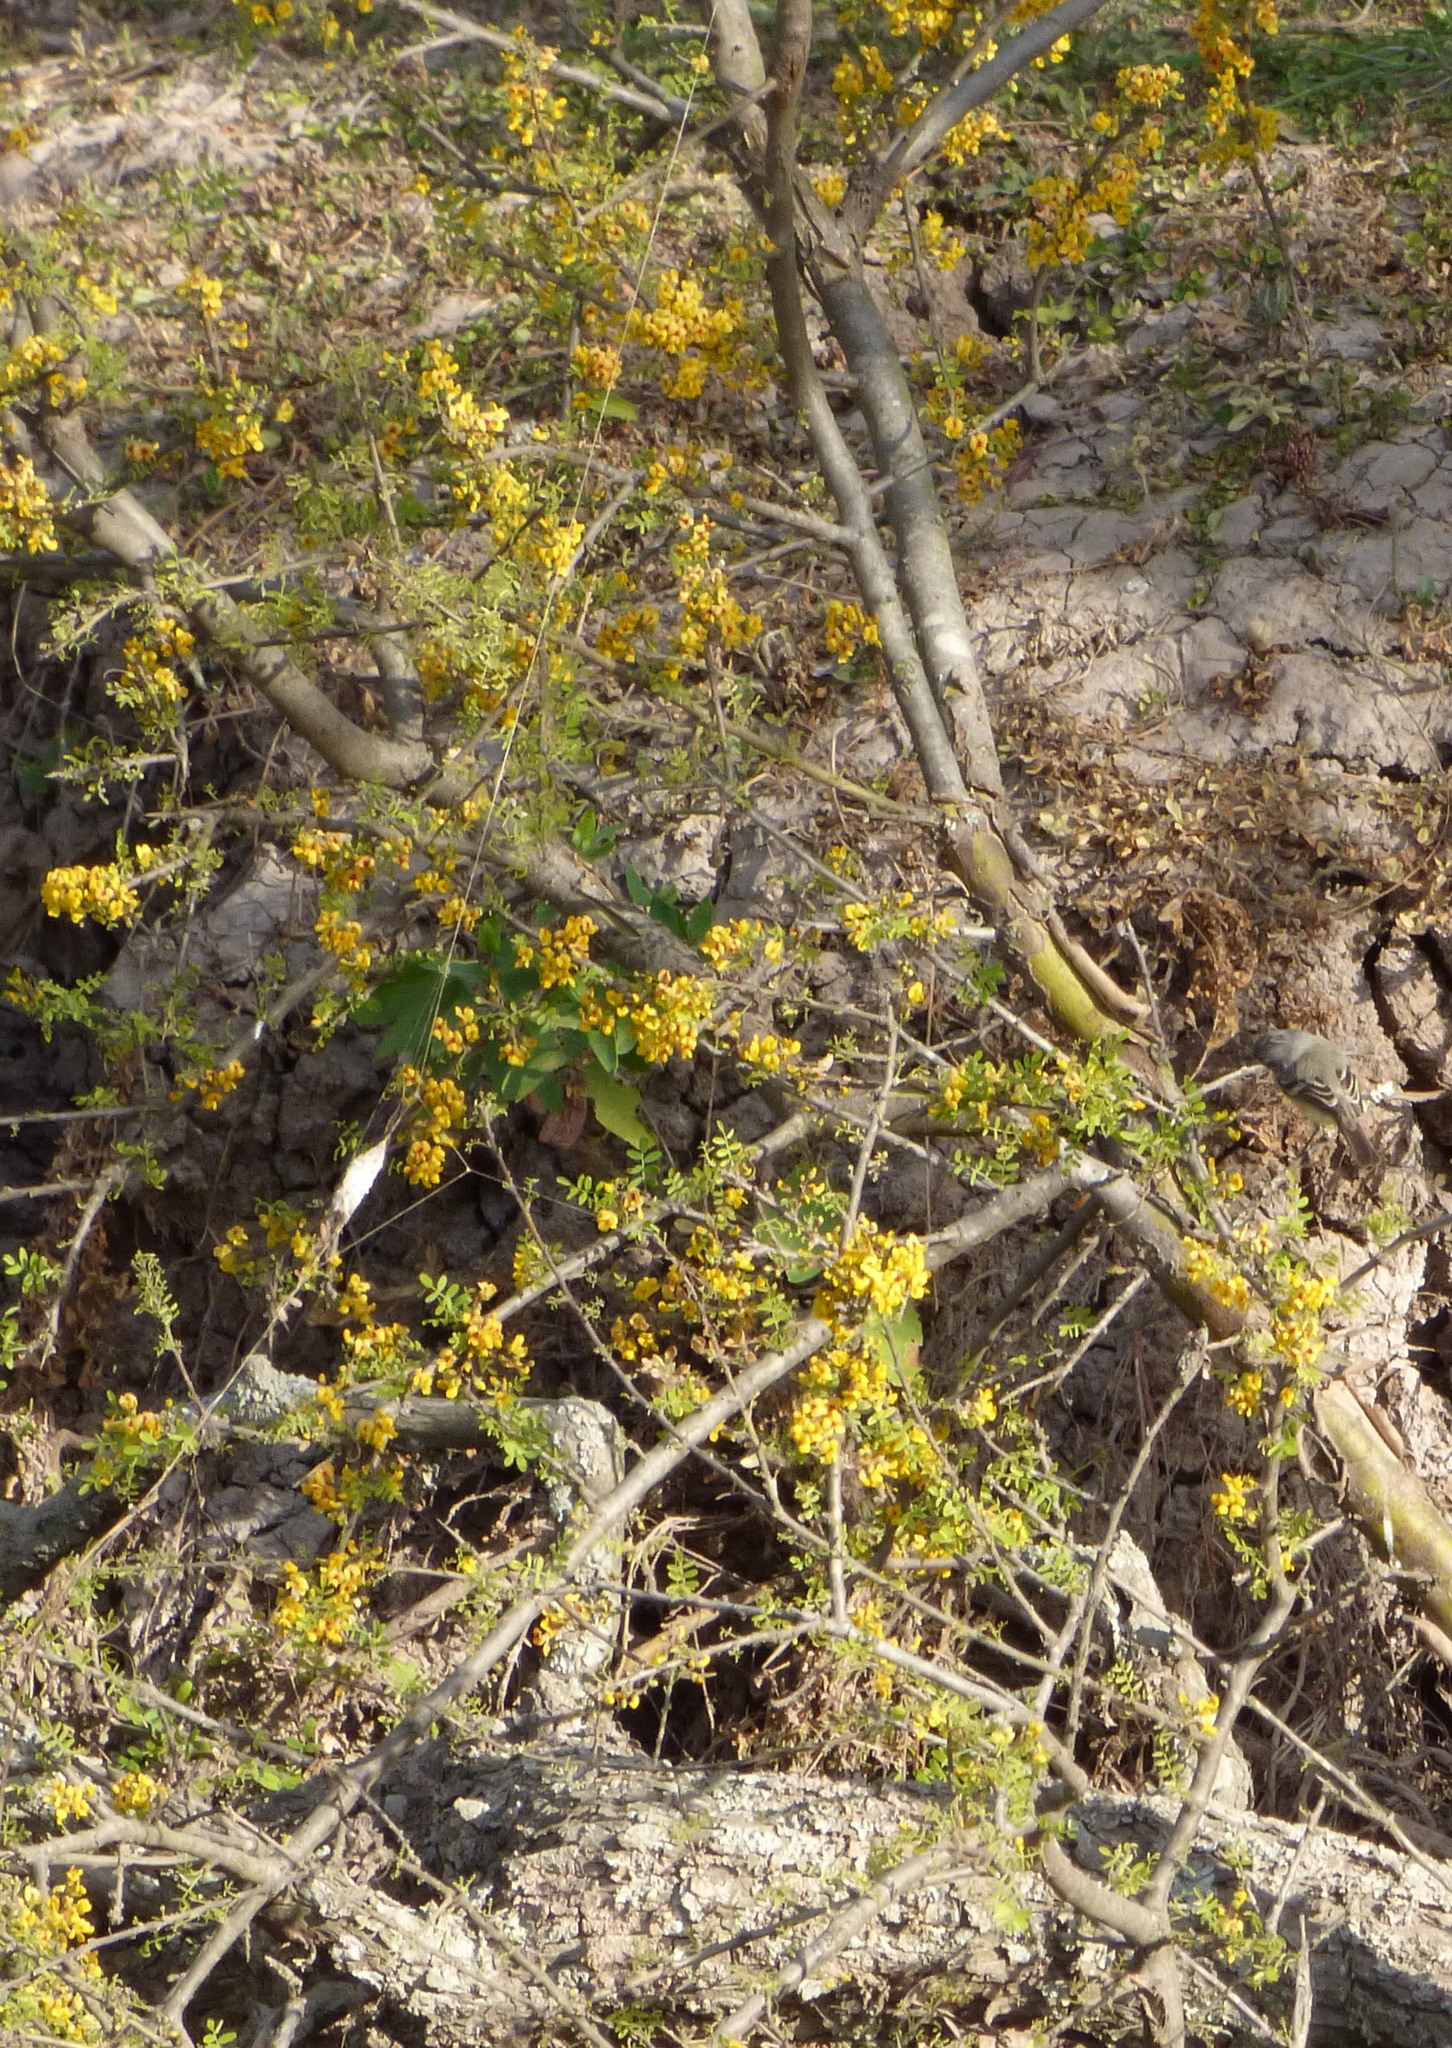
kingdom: Plantae
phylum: Tracheophyta
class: Magnoliopsida
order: Fabales
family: Fabaceae
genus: Geoffroea
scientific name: Geoffroea decorticans
